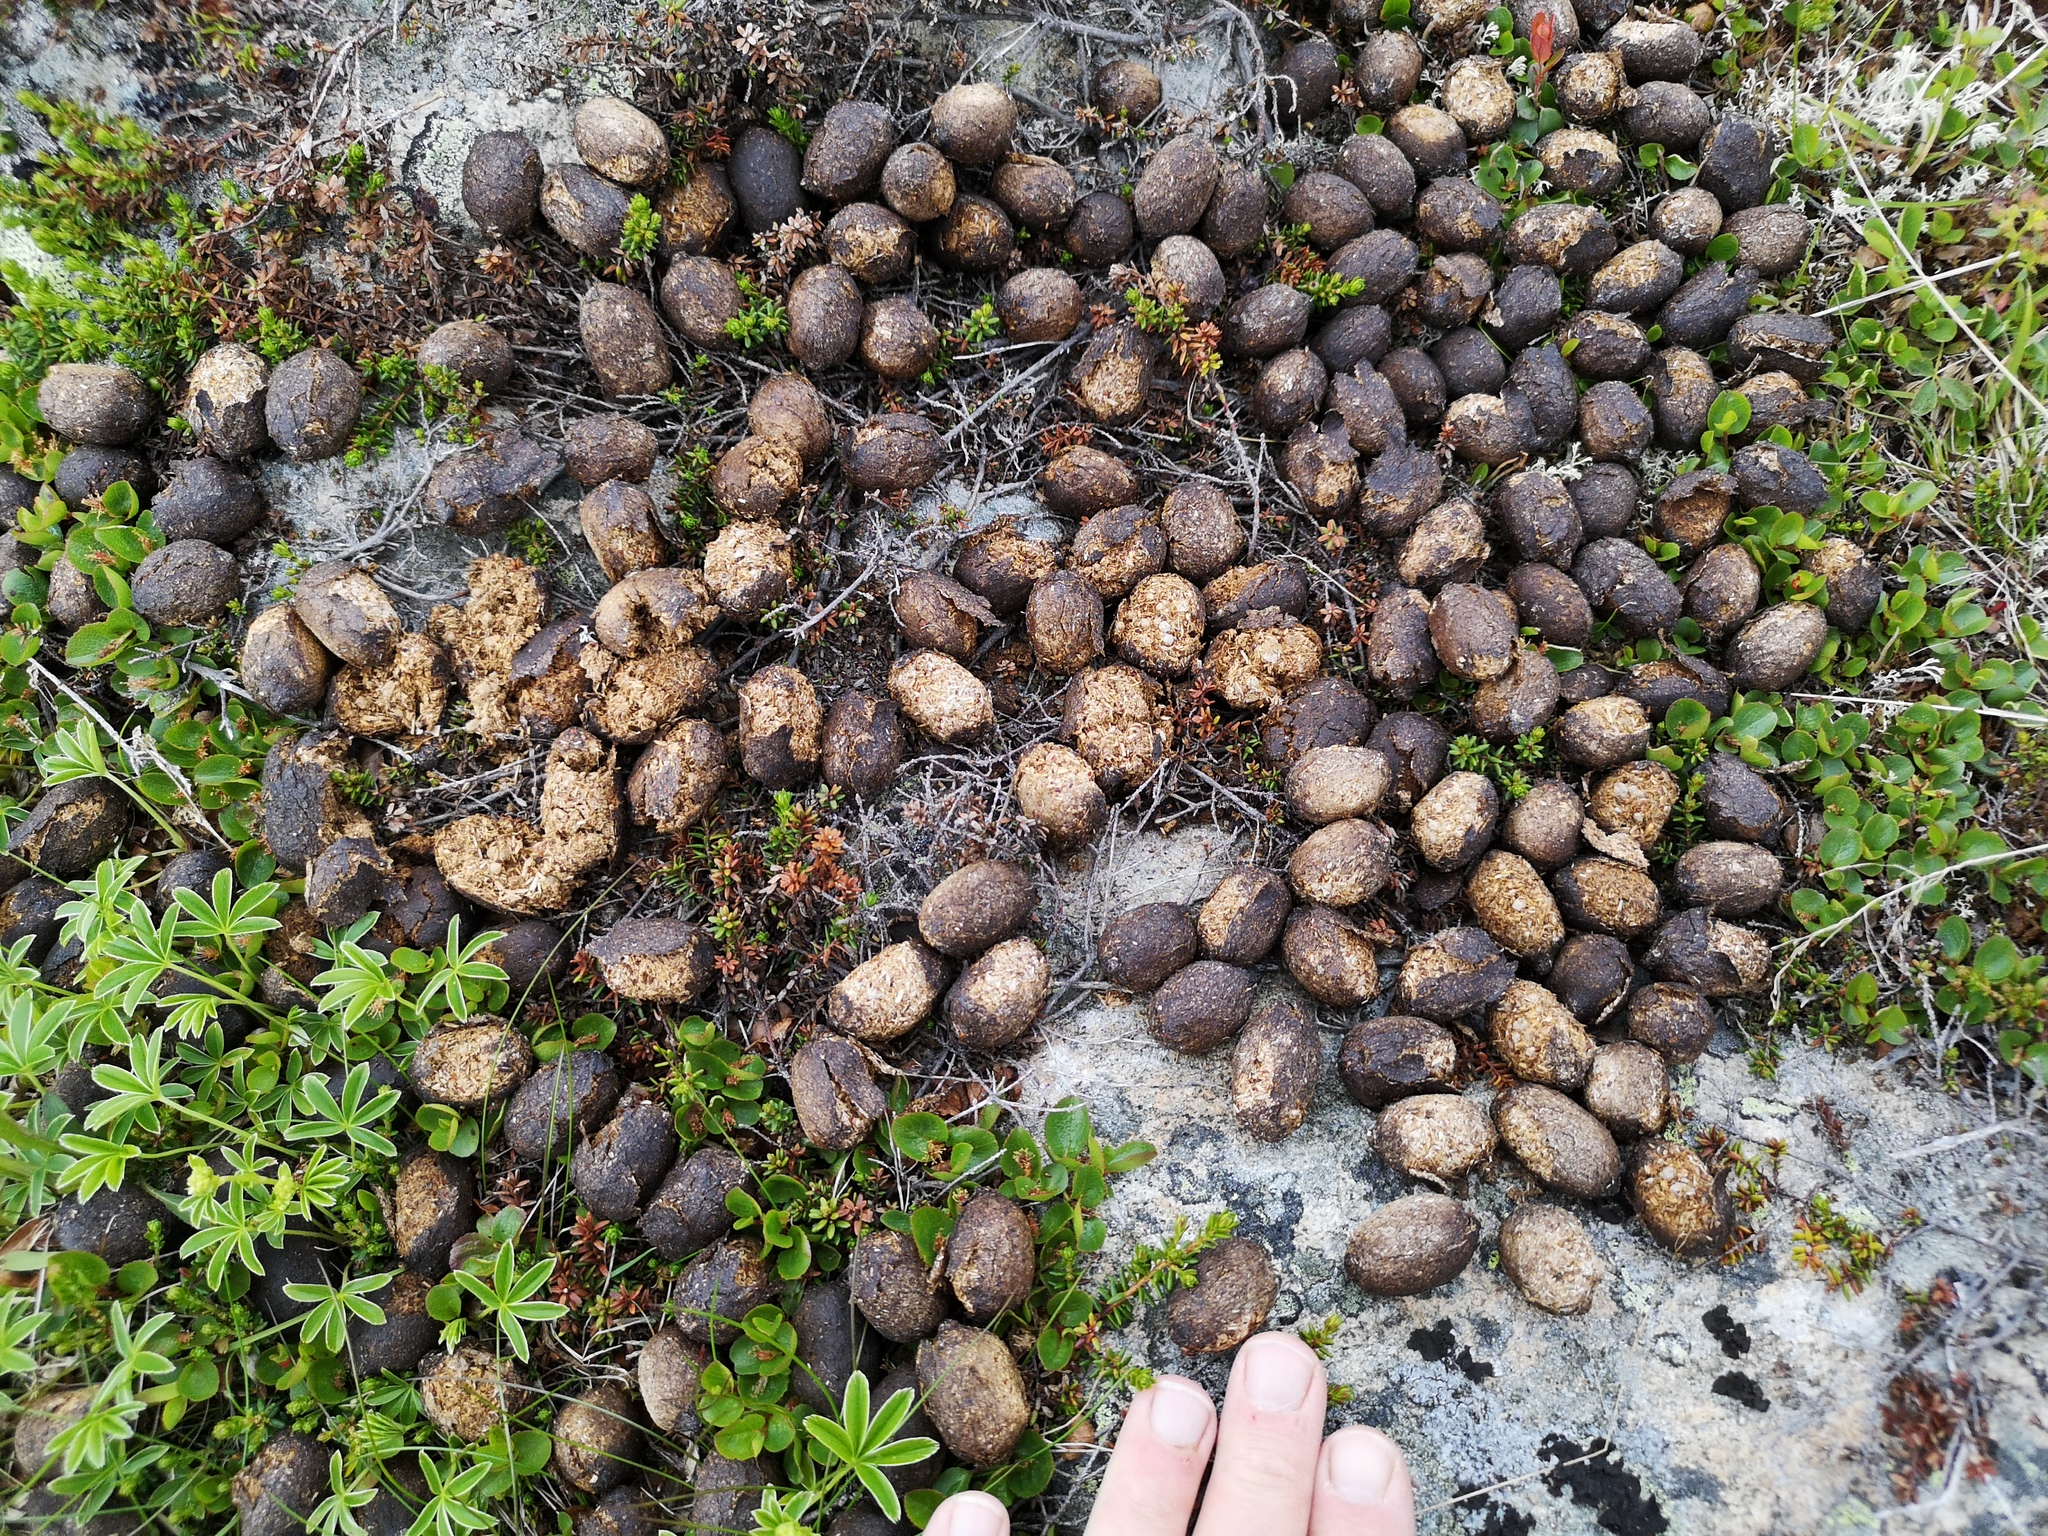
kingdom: Animalia
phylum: Chordata
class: Mammalia
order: Artiodactyla
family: Cervidae
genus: Alces
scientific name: Alces alces
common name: Moose
